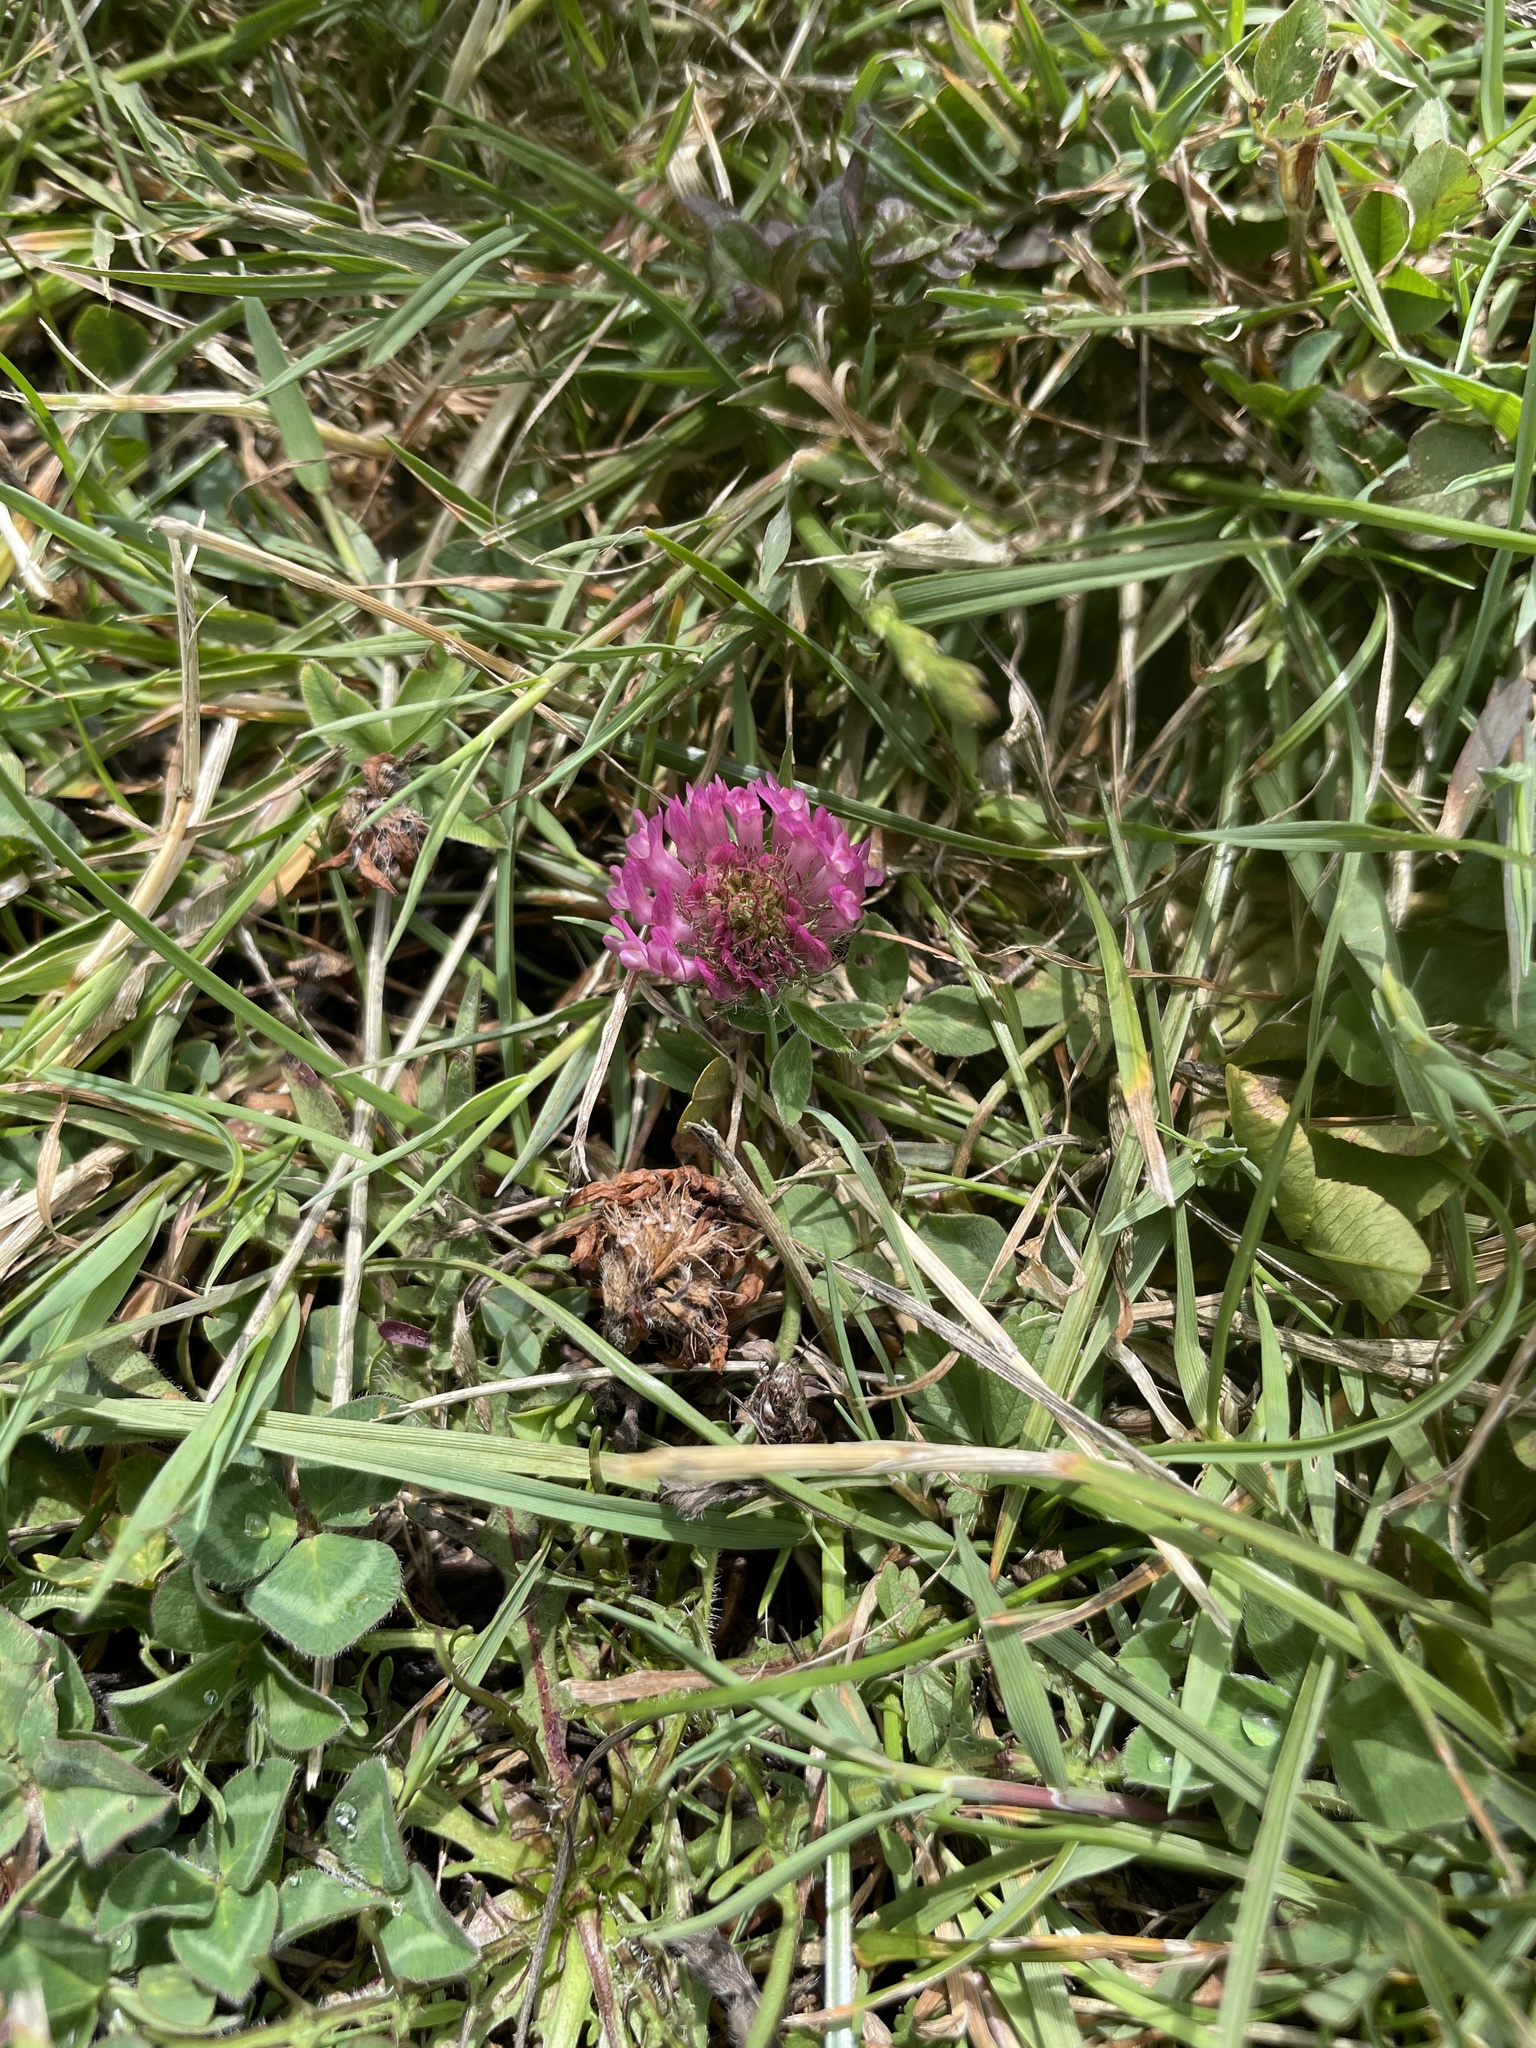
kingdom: Plantae
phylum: Tracheophyta
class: Magnoliopsida
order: Fabales
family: Fabaceae
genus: Trifolium
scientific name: Trifolium pratense
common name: Red clover
